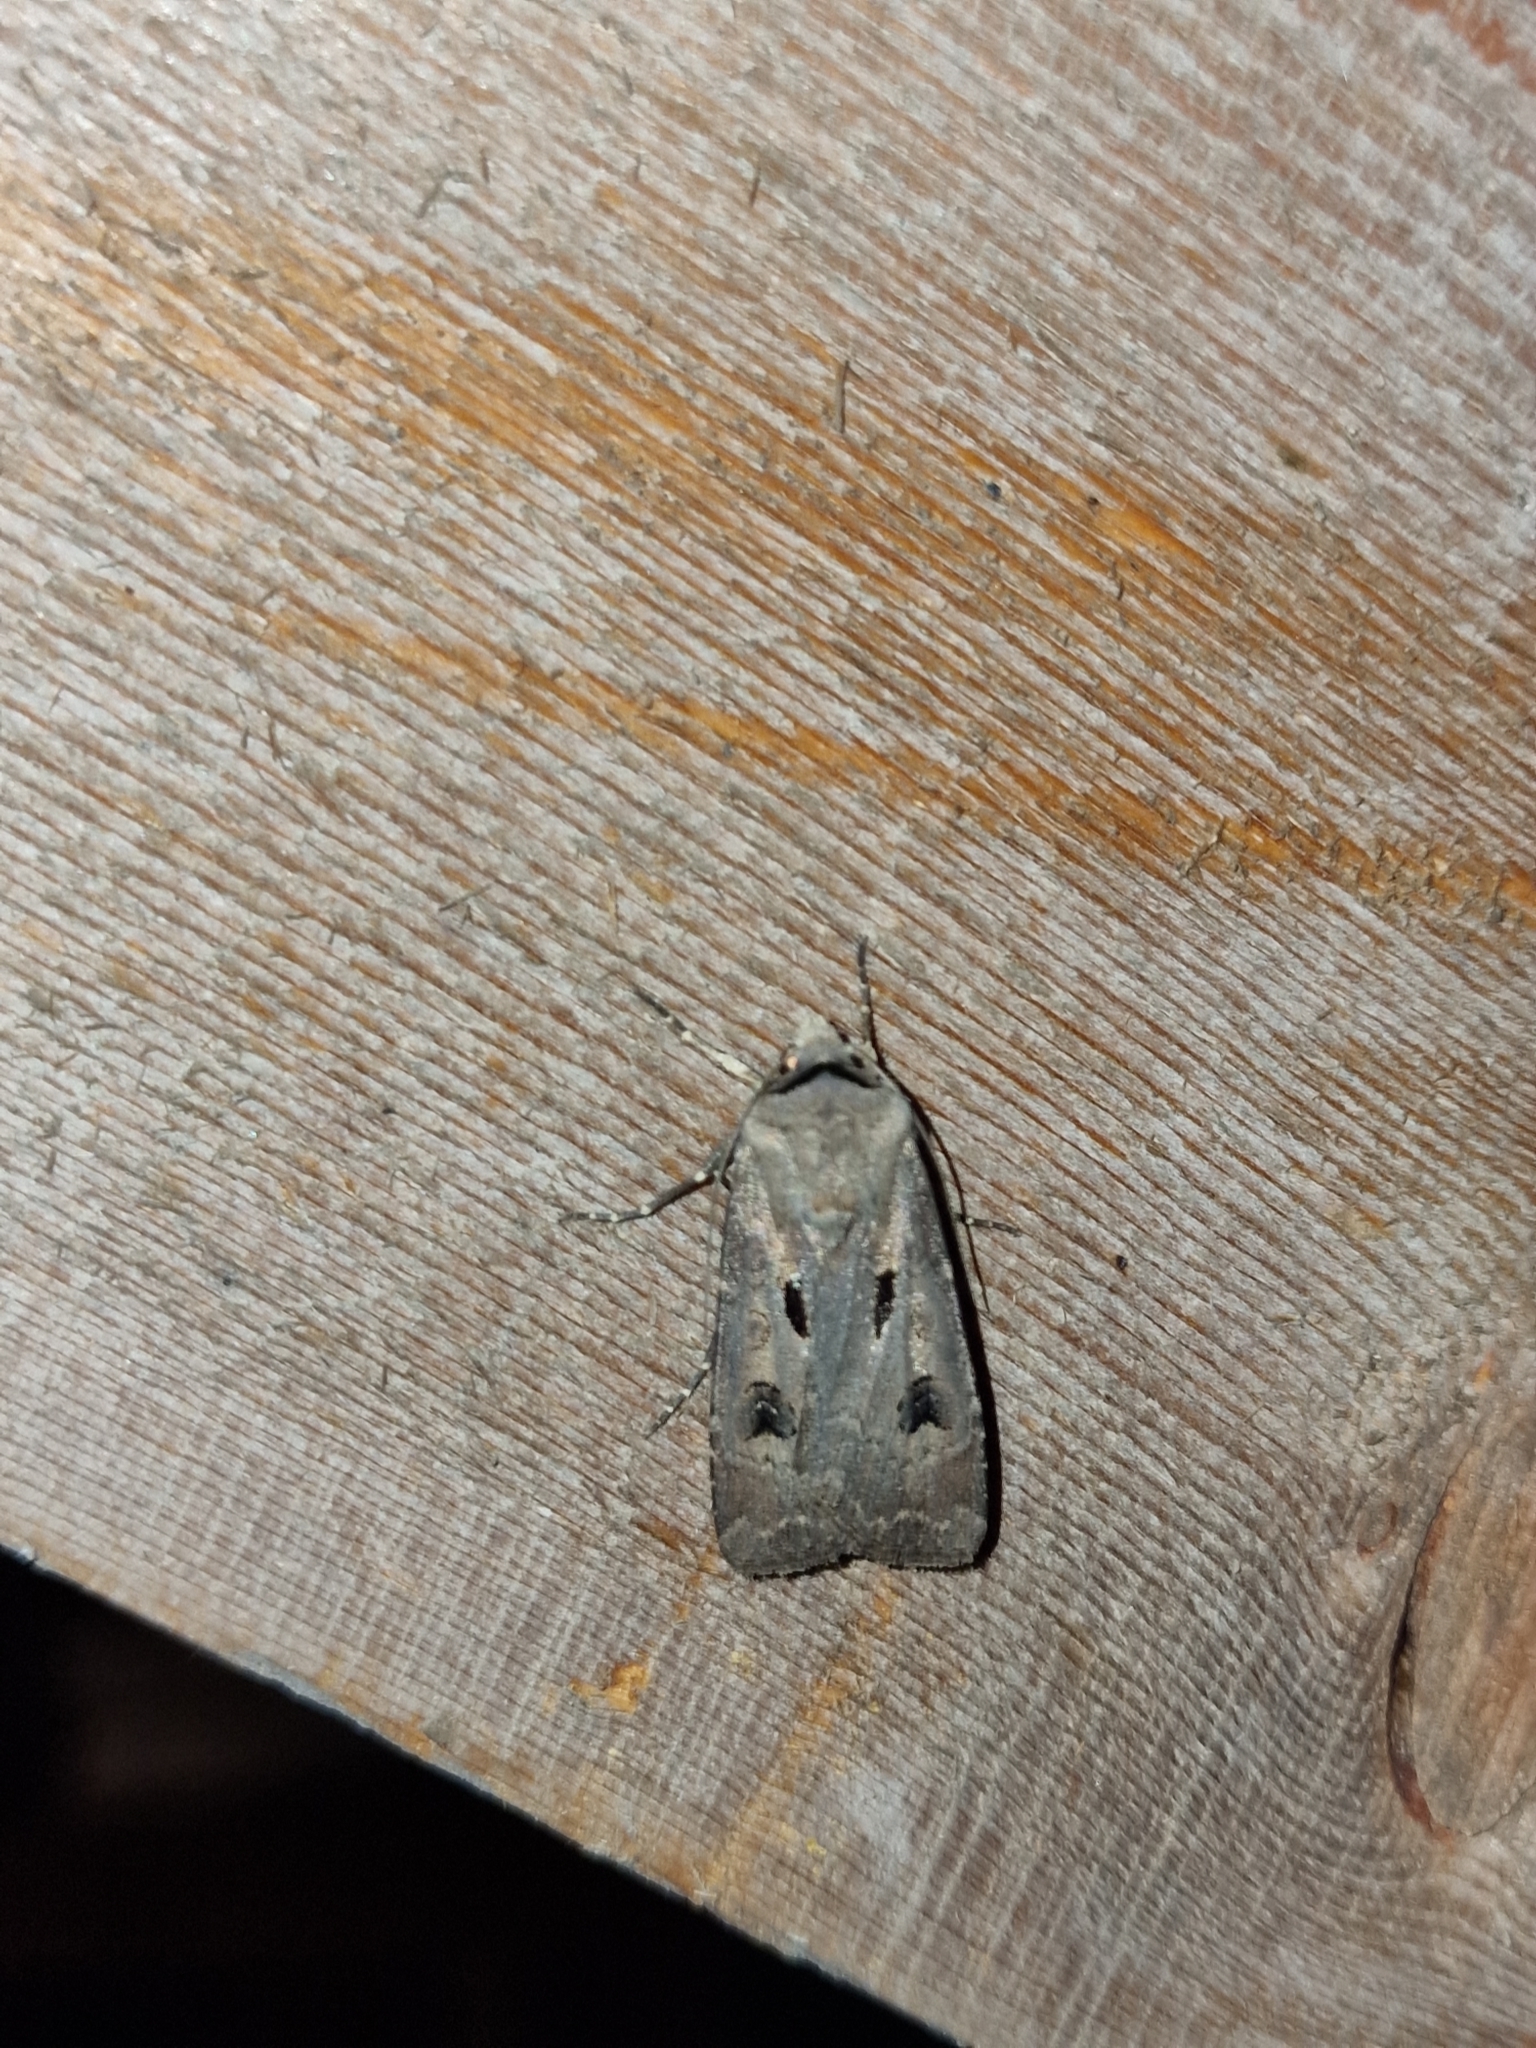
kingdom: Animalia
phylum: Arthropoda
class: Insecta
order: Lepidoptera
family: Noctuidae
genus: Agrotis
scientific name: Agrotis exclamationis
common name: Heart and dart
